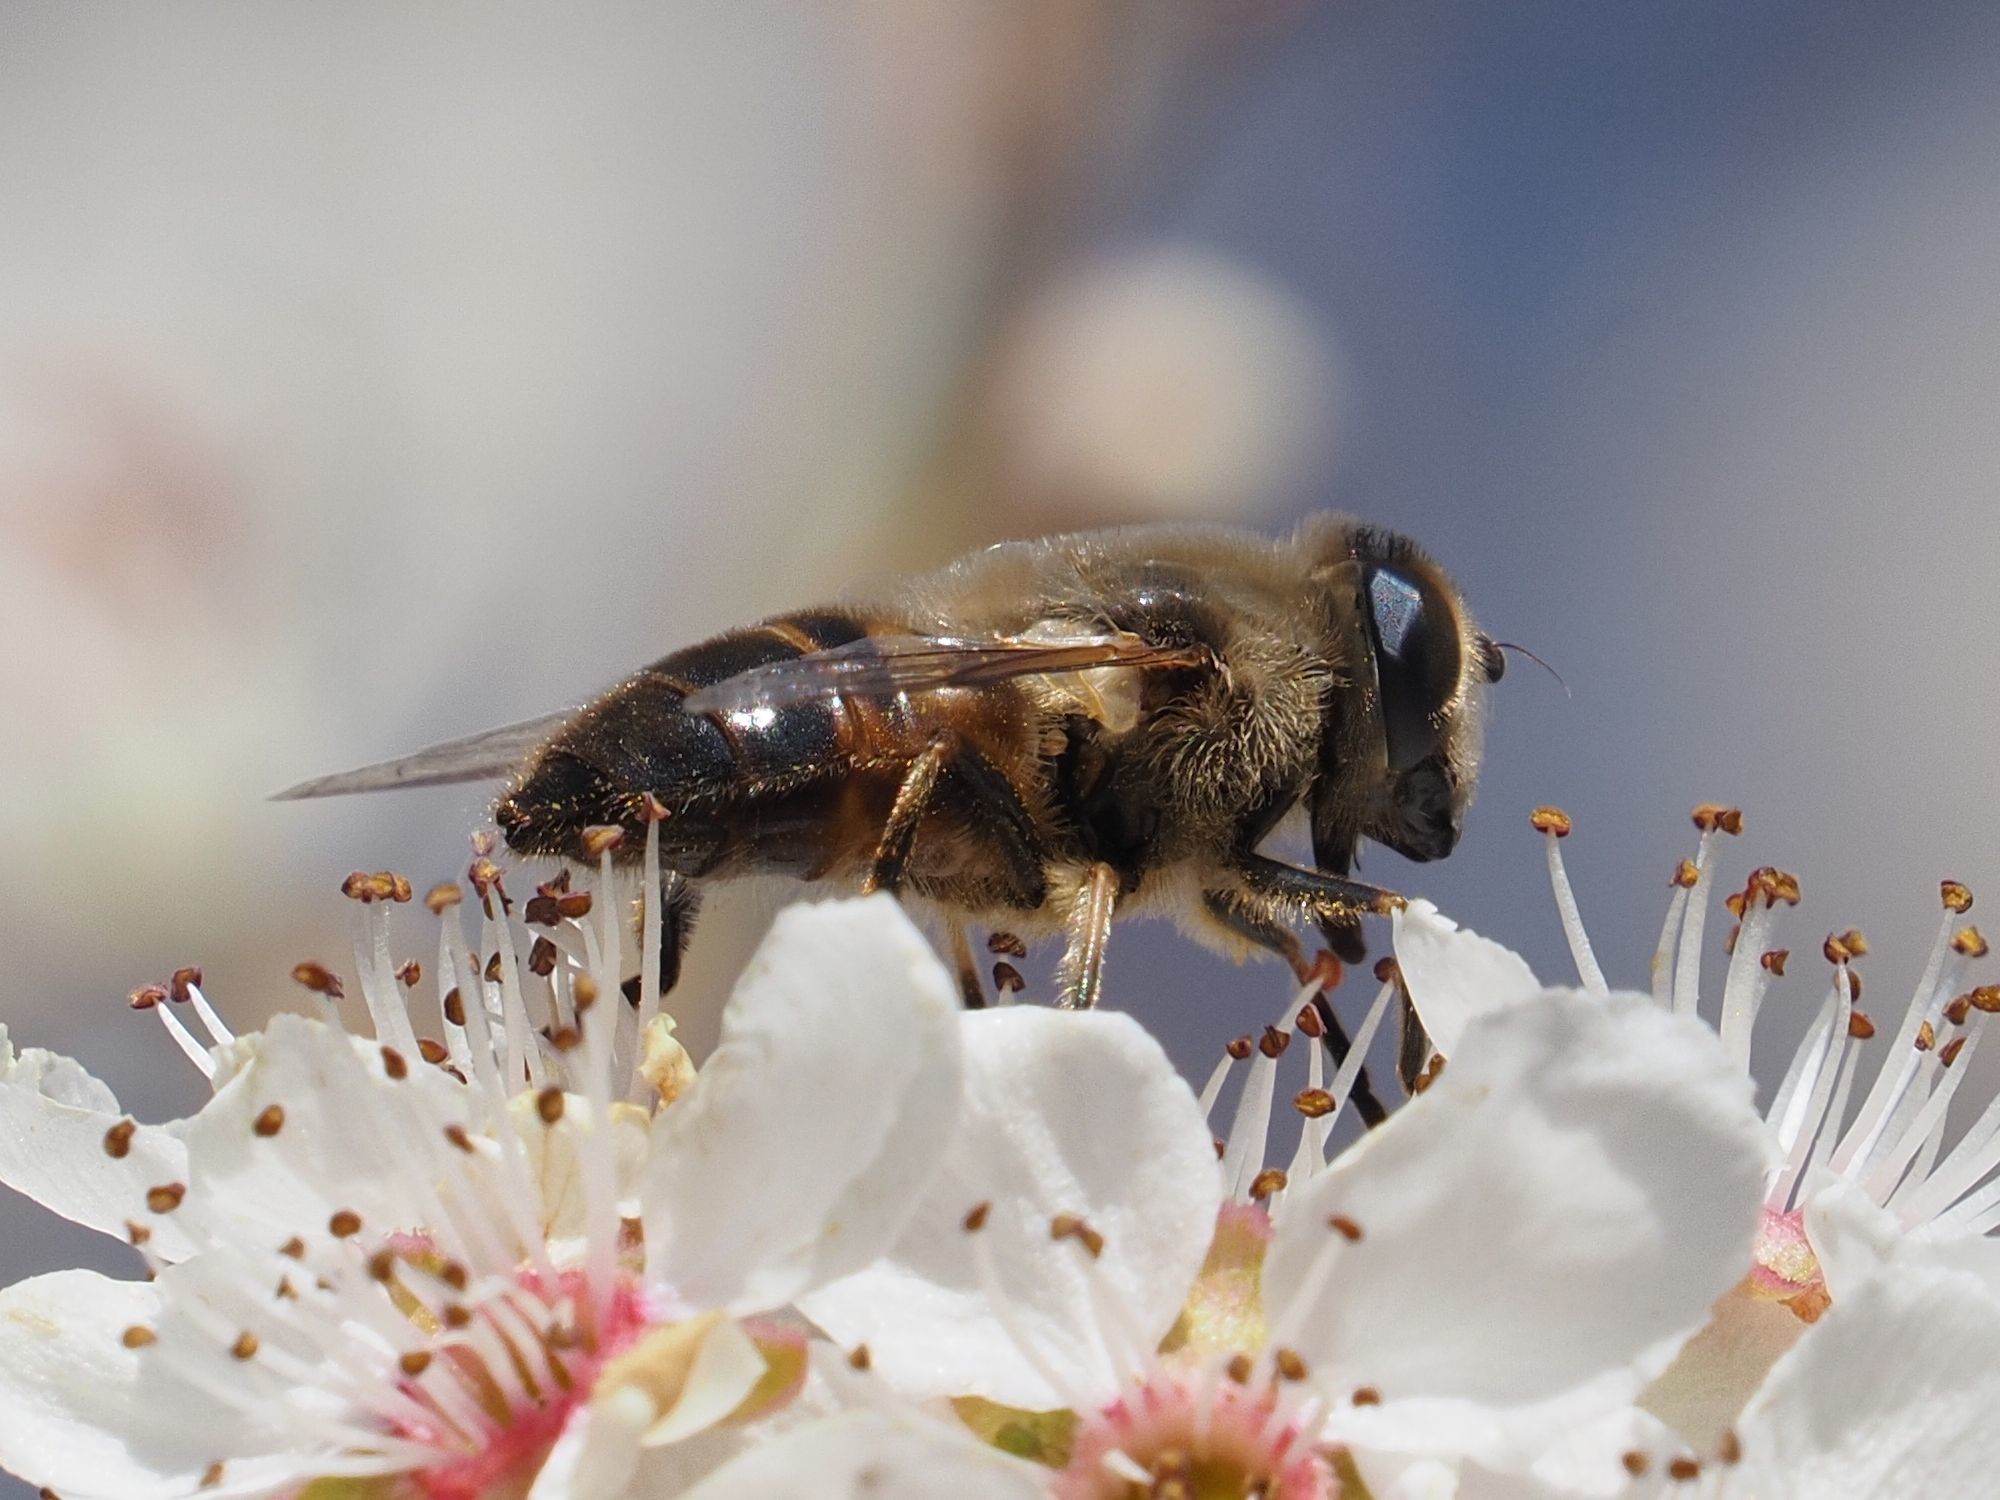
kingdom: Animalia
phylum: Arthropoda
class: Insecta
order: Diptera
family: Syrphidae
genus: Eristalis
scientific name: Eristalis tenax
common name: Drone fly
